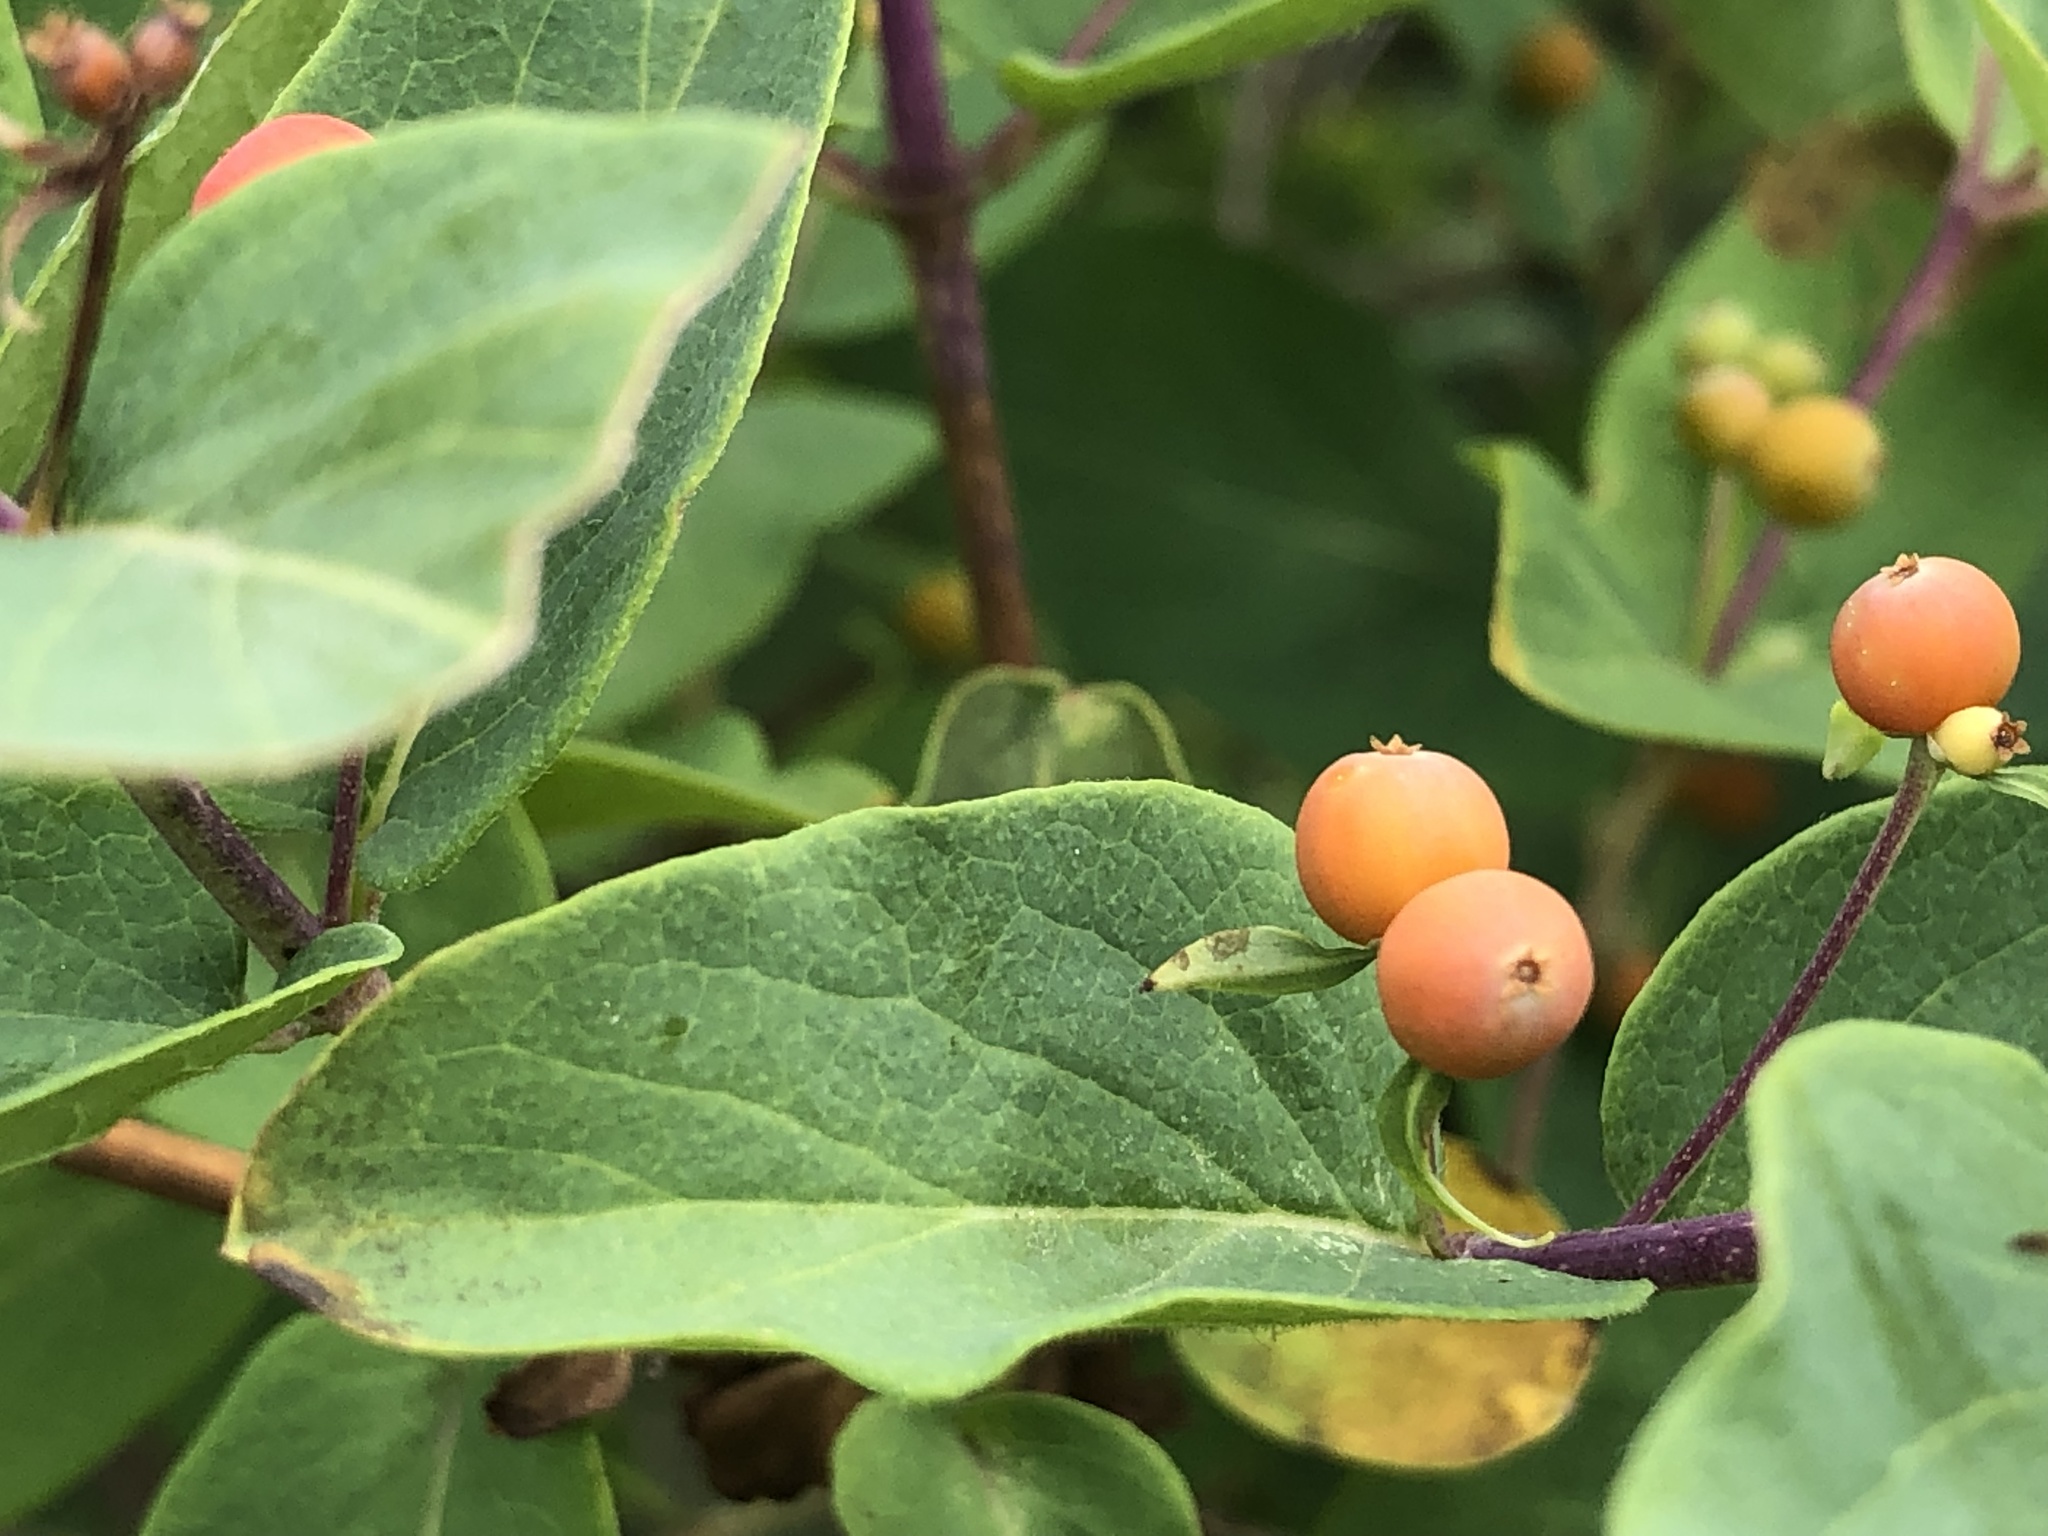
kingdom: Plantae
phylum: Tracheophyta
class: Magnoliopsida
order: Dipsacales
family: Caprifoliaceae
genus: Lonicera
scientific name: Lonicera bella
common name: Bell's honeysuckle
